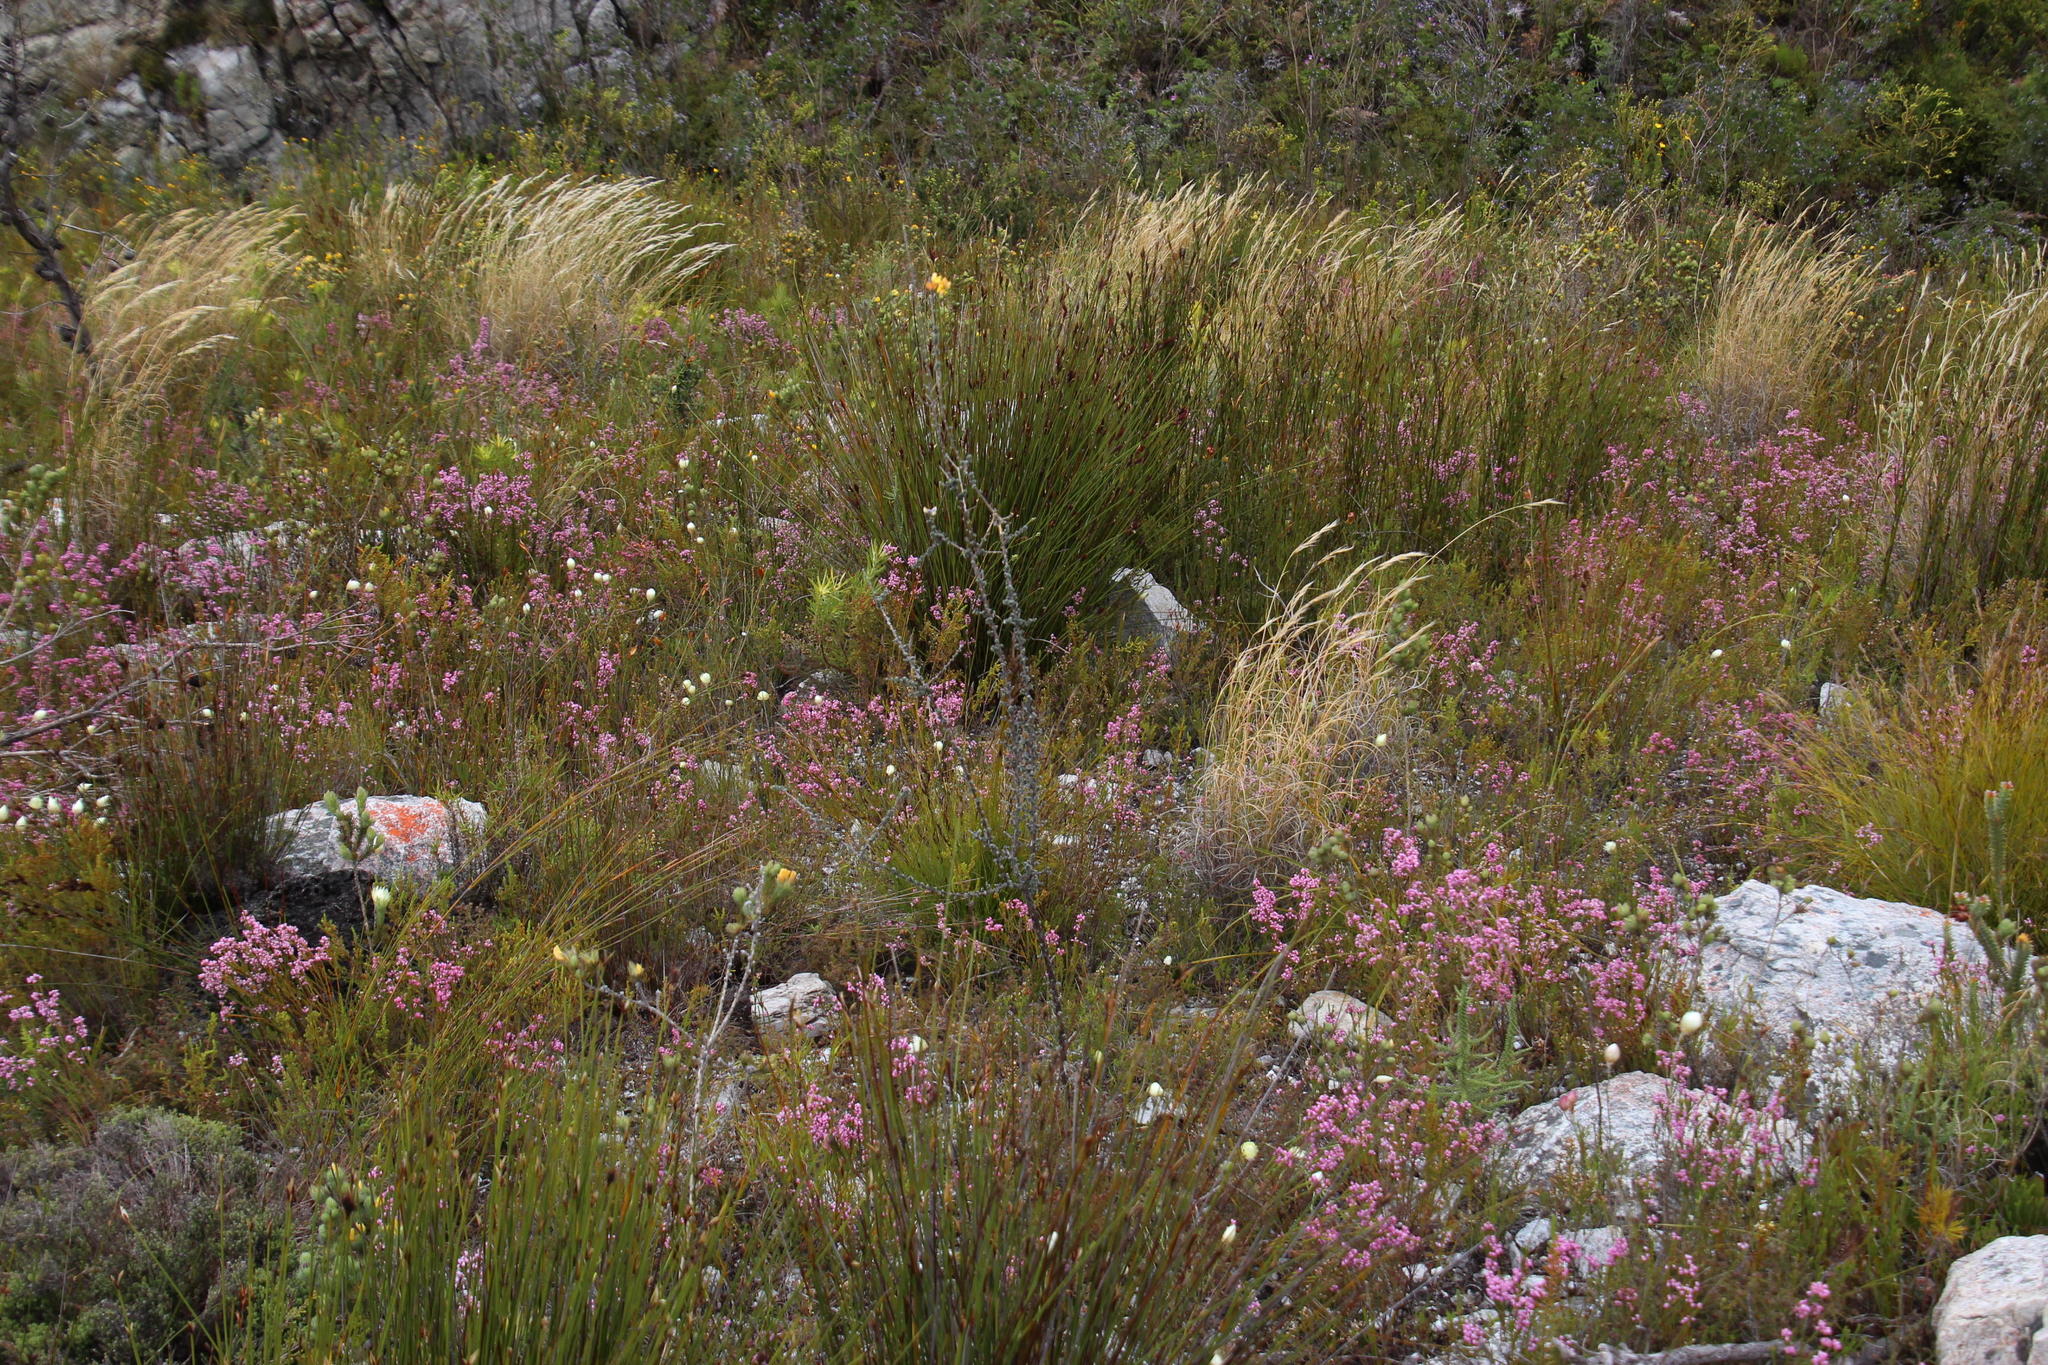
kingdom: Plantae
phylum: Tracheophyta
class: Magnoliopsida
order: Fabales
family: Fabaceae
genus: Aspalathus
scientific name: Aspalathus ramulosa
